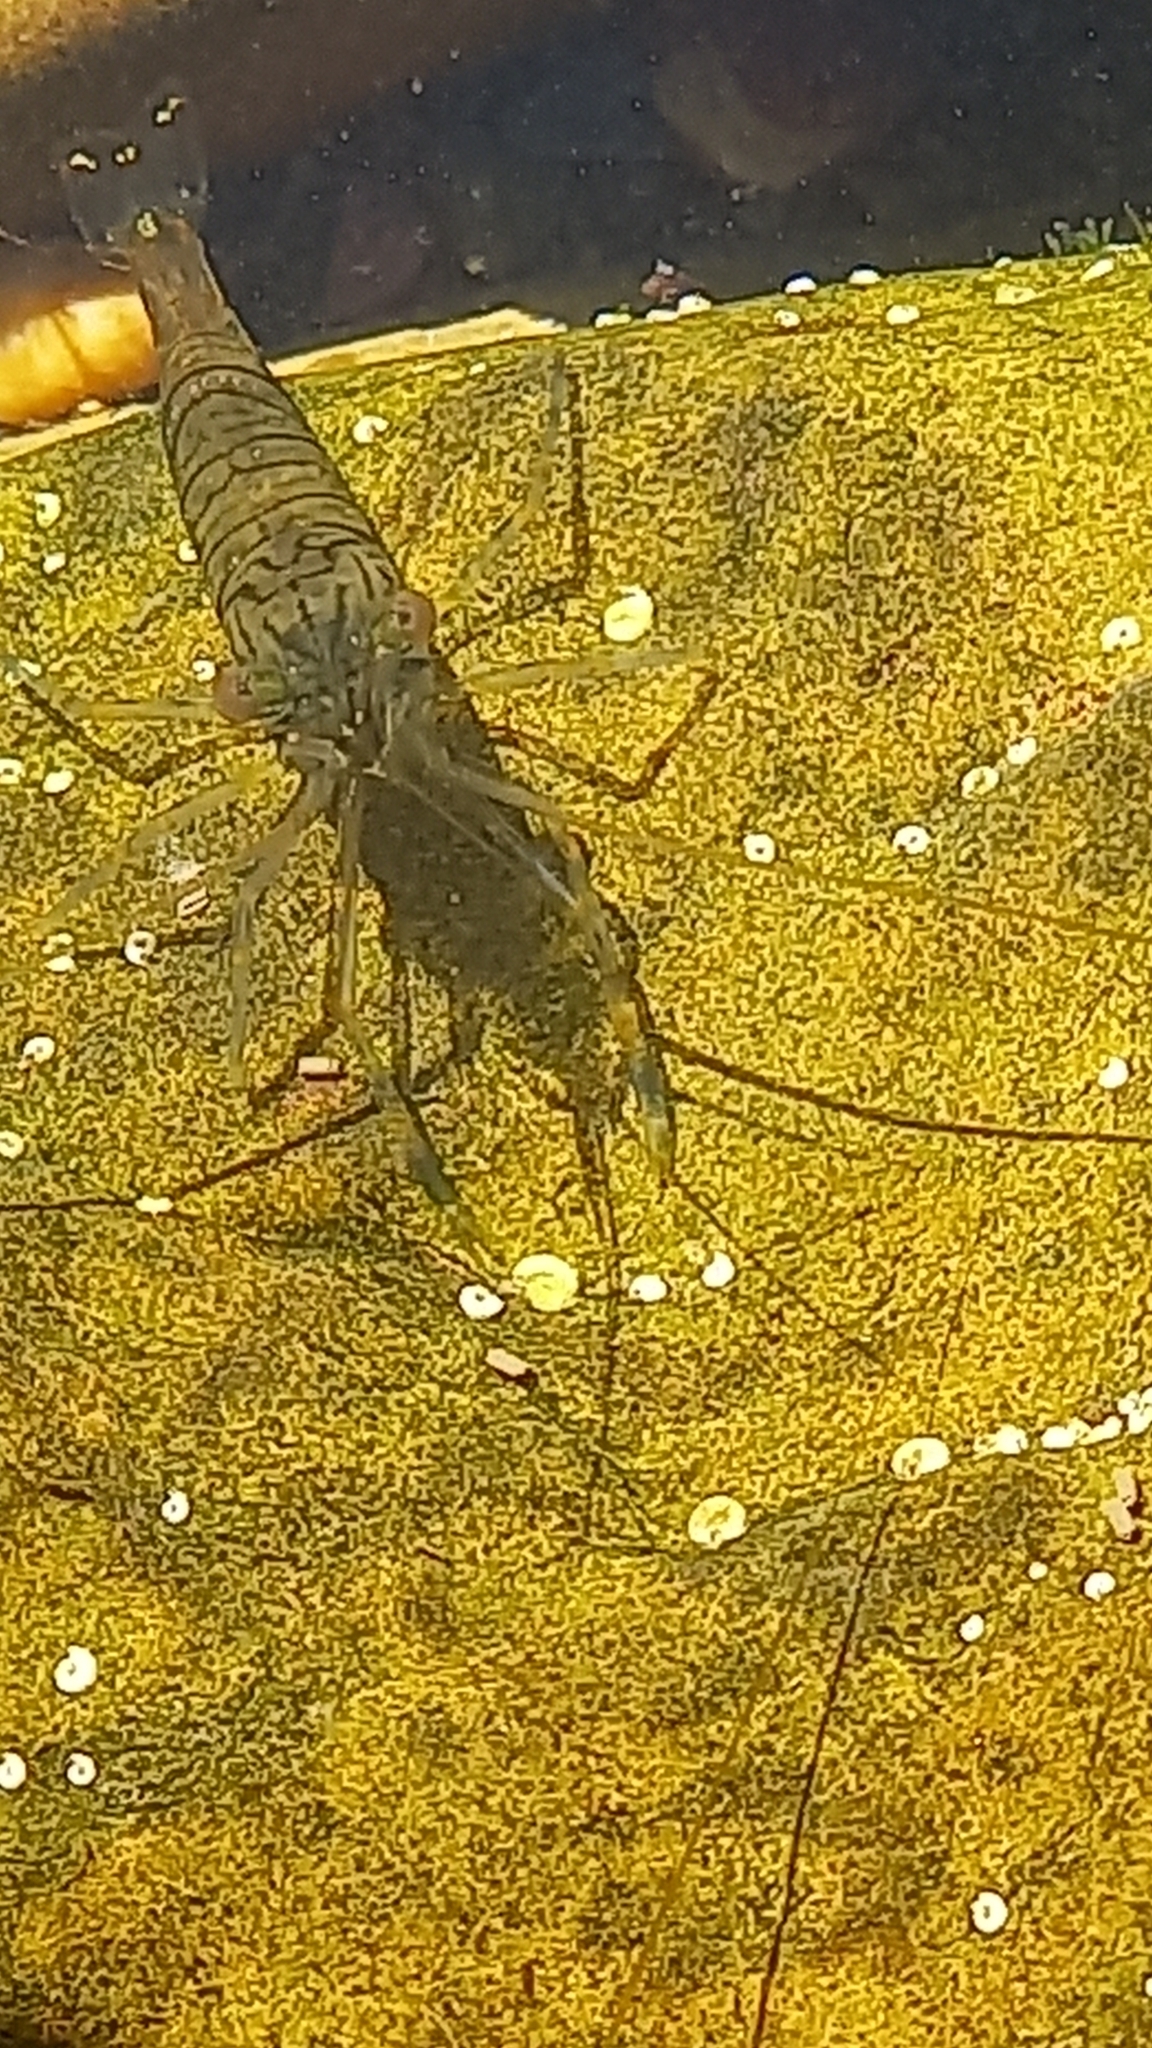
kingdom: Animalia
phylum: Arthropoda
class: Malacostraca
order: Decapoda
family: Palaemonidae
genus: Palaemon
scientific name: Palaemon elegans
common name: Grass prawm
